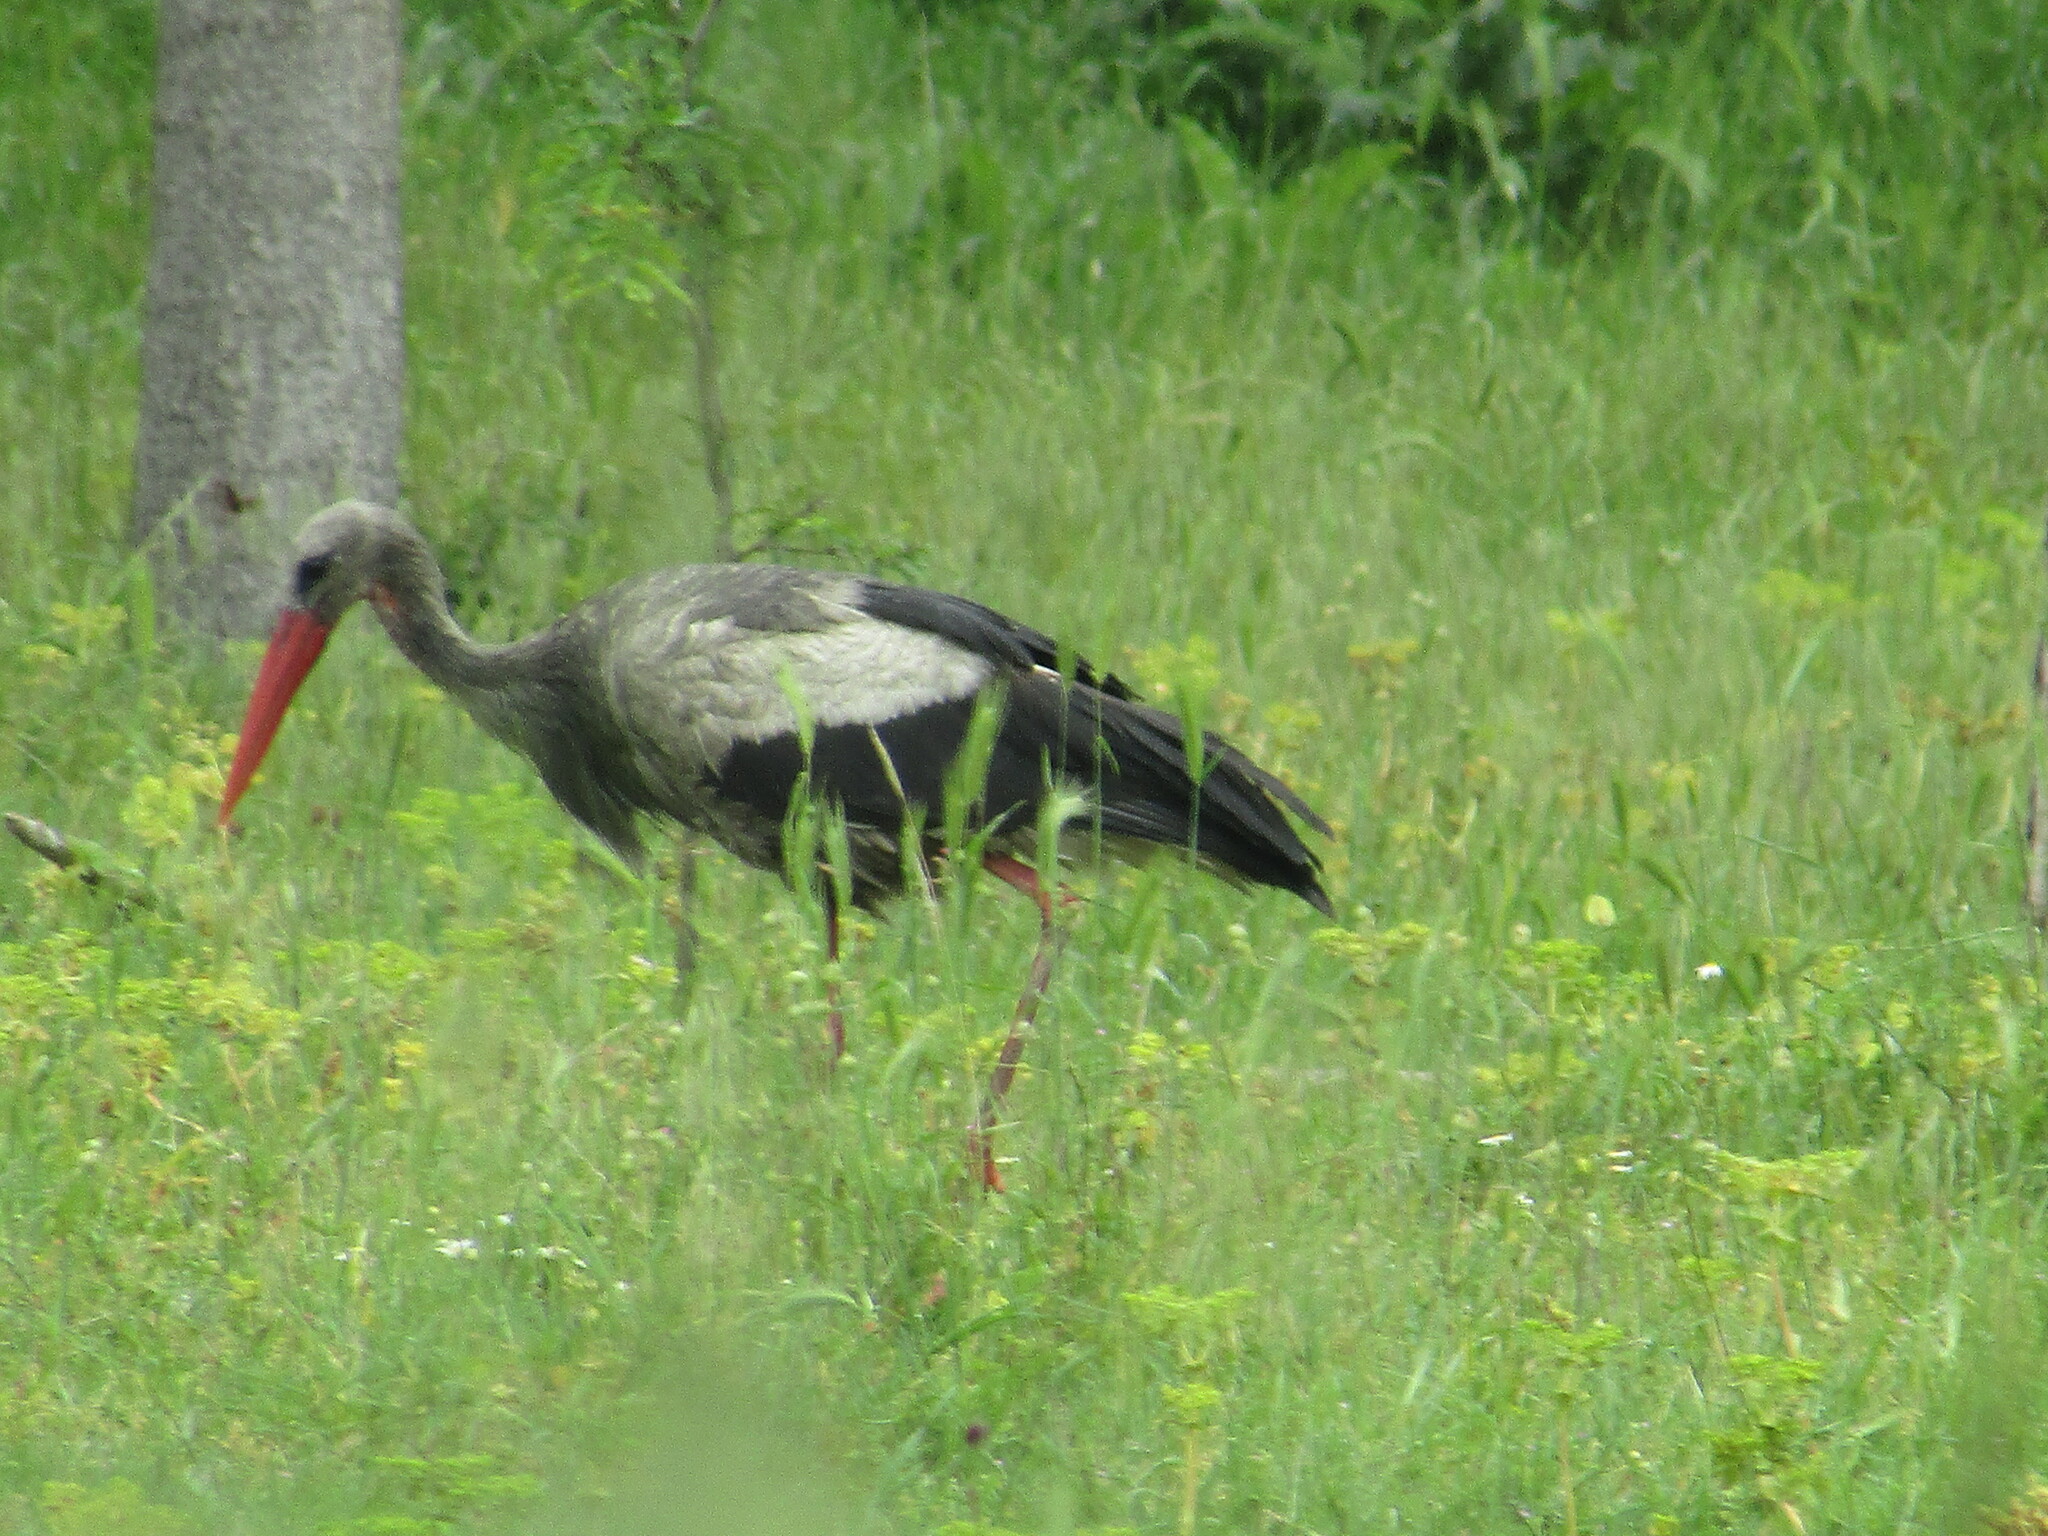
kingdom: Animalia
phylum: Chordata
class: Aves
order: Ciconiiformes
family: Ciconiidae
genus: Ciconia
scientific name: Ciconia ciconia
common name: White stork
